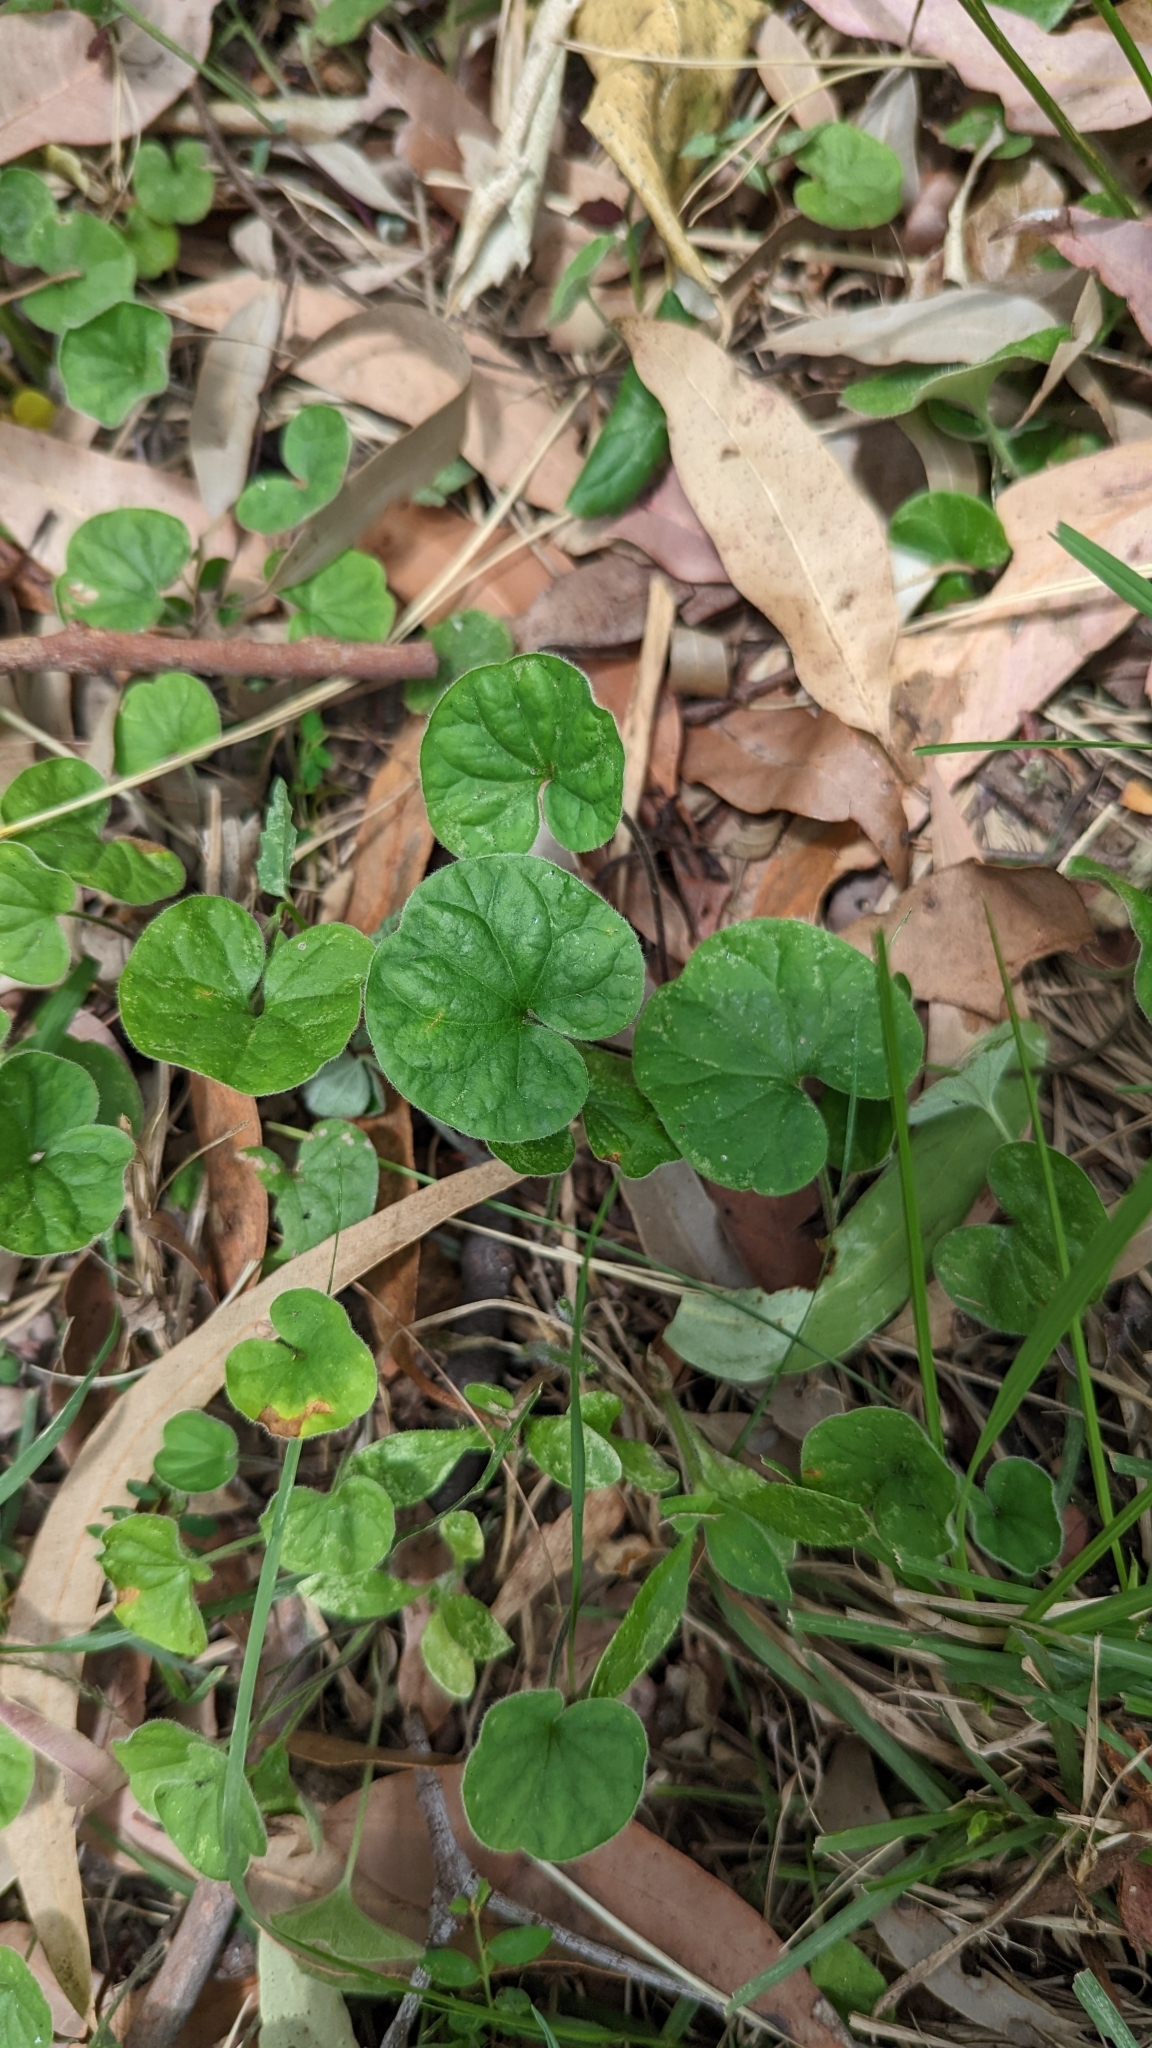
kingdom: Plantae
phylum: Tracheophyta
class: Magnoliopsida
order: Solanales
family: Convolvulaceae
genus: Dichondra
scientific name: Dichondra repens
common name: Kidneyweed
